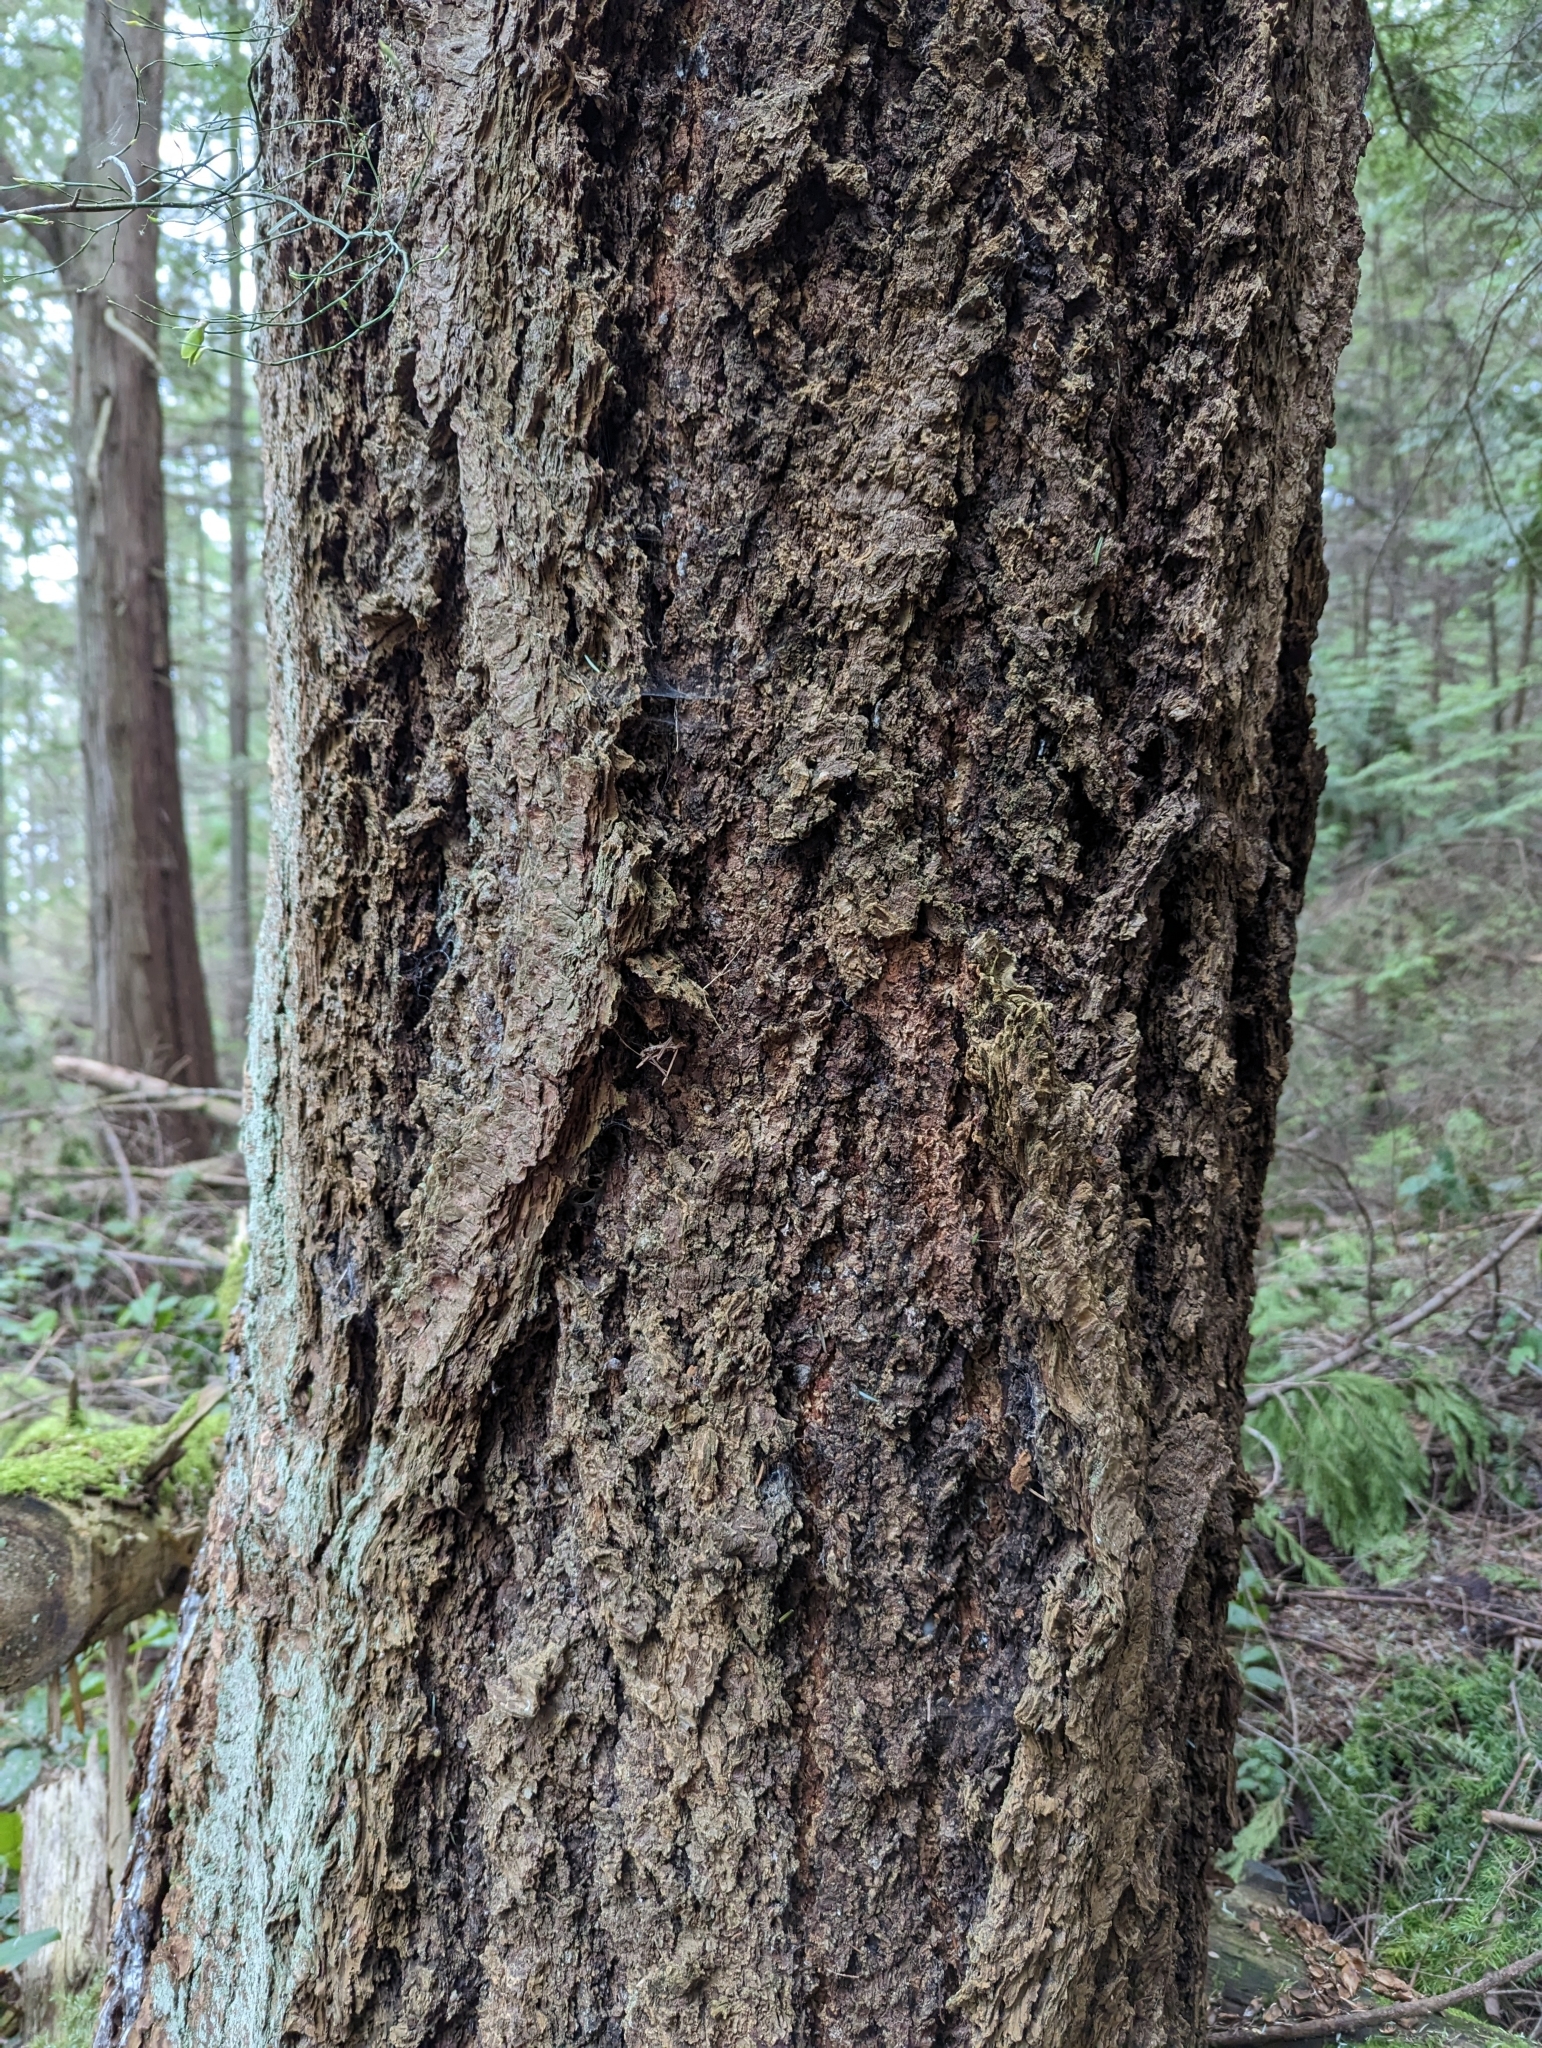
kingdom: Plantae
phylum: Tracheophyta
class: Pinopsida
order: Pinales
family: Pinaceae
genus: Pseudotsuga
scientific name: Pseudotsuga menziesii
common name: Douglas fir
